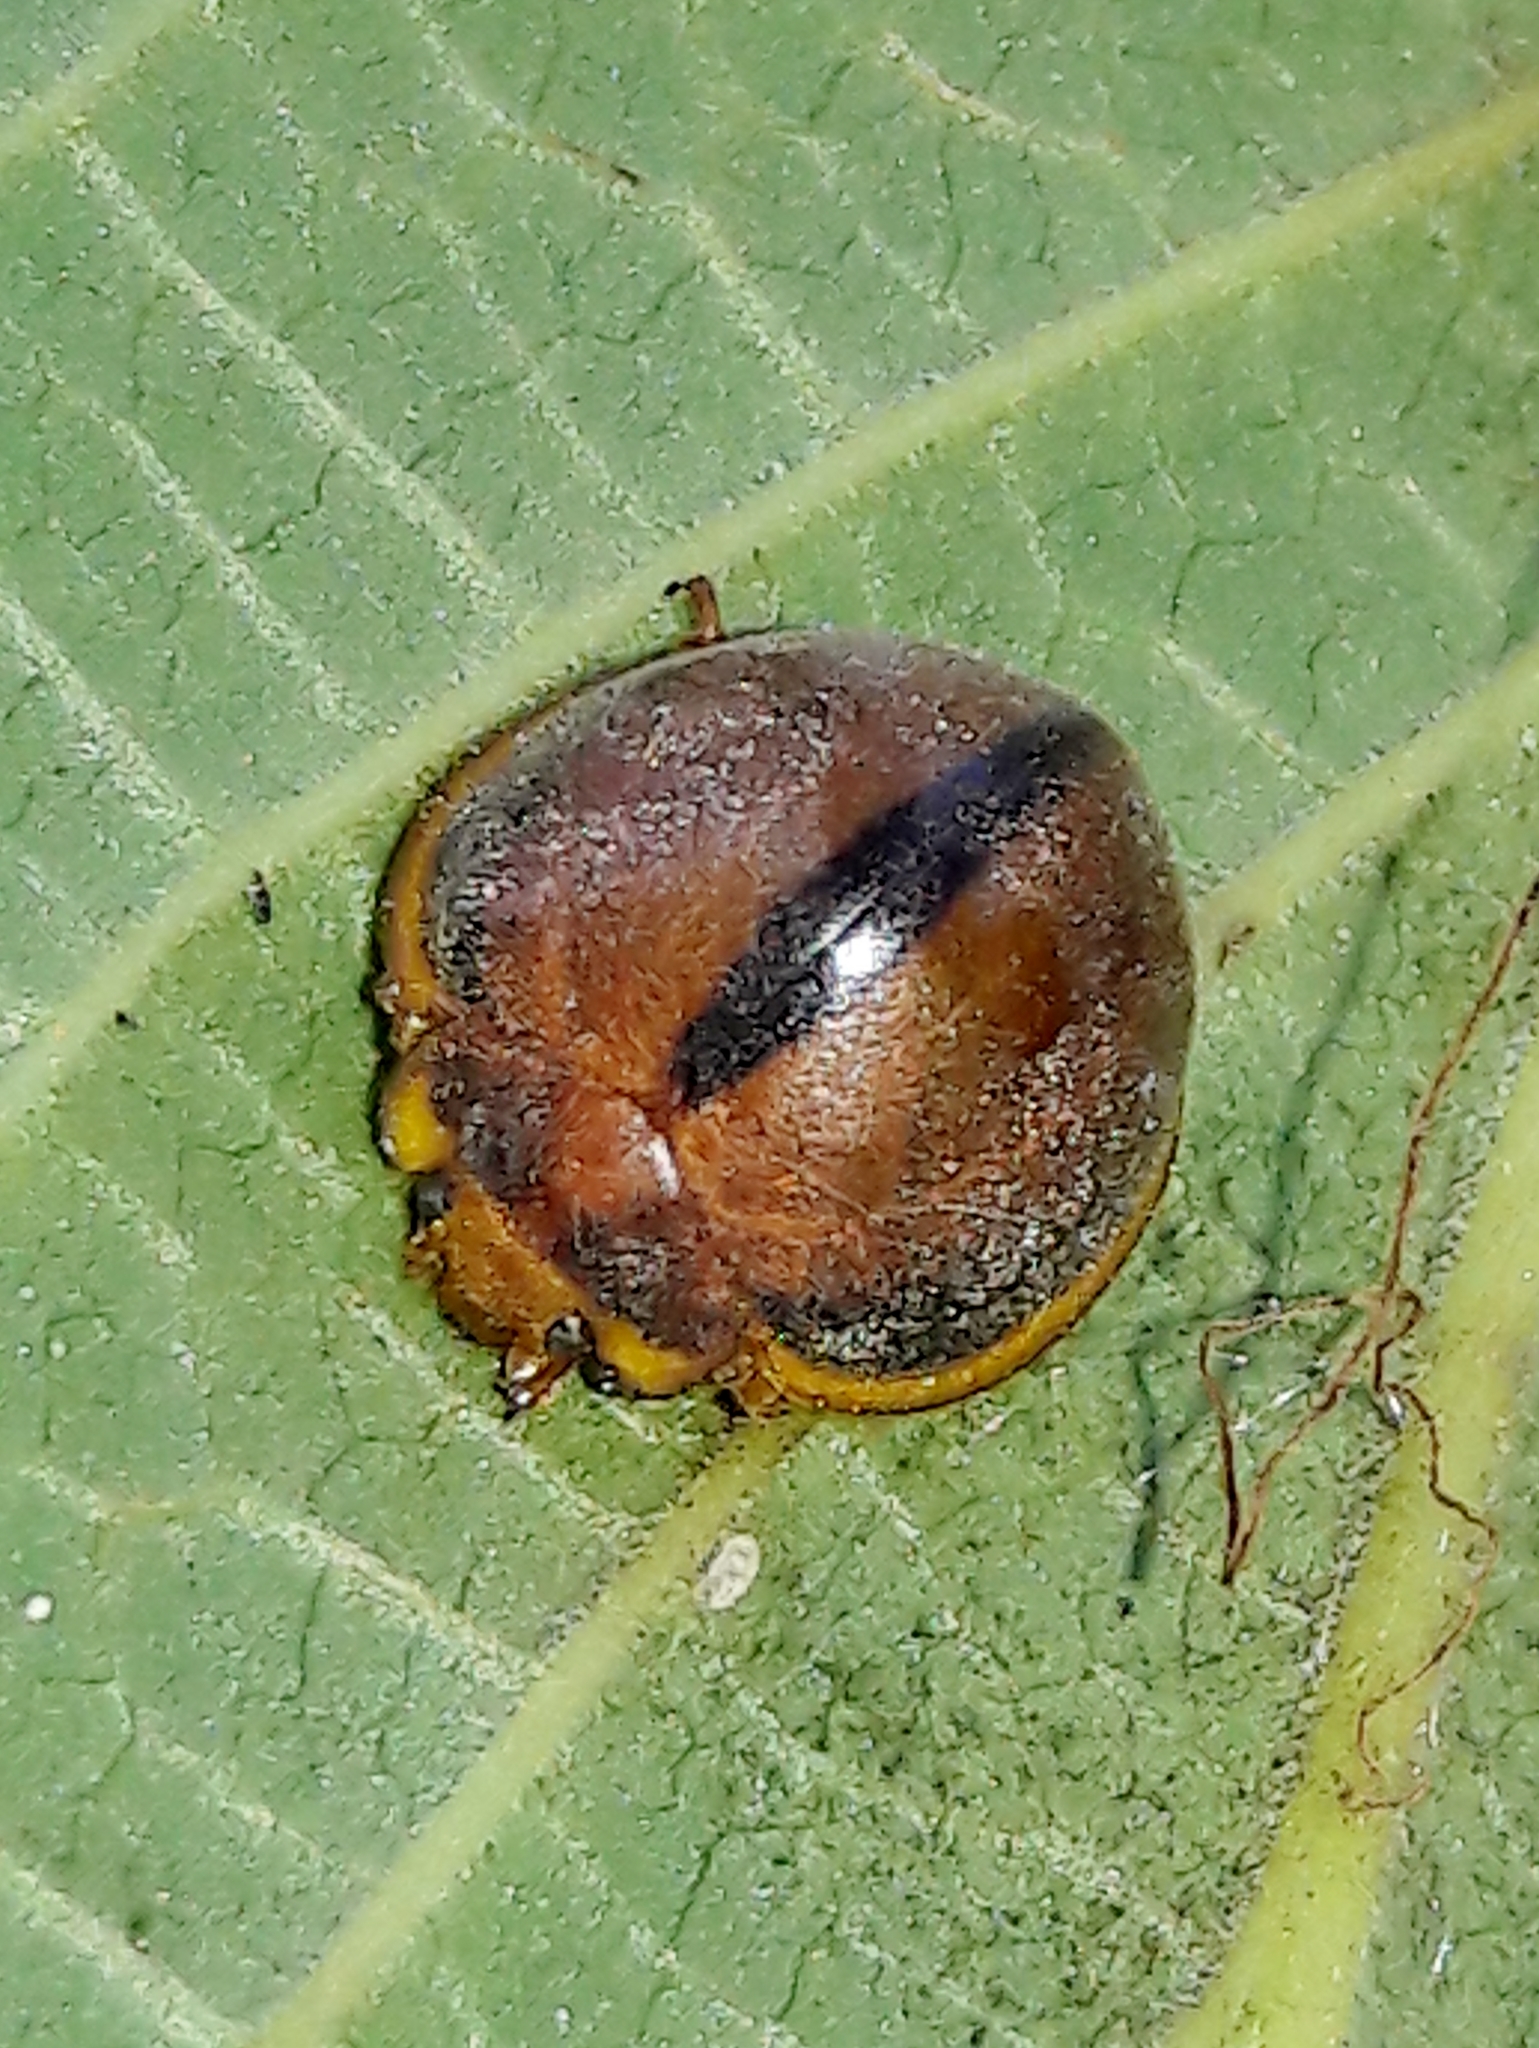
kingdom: Animalia
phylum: Arthropoda
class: Insecta
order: Coleoptera
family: Coccinellidae
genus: Epilachna
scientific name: Epilachna cacica
